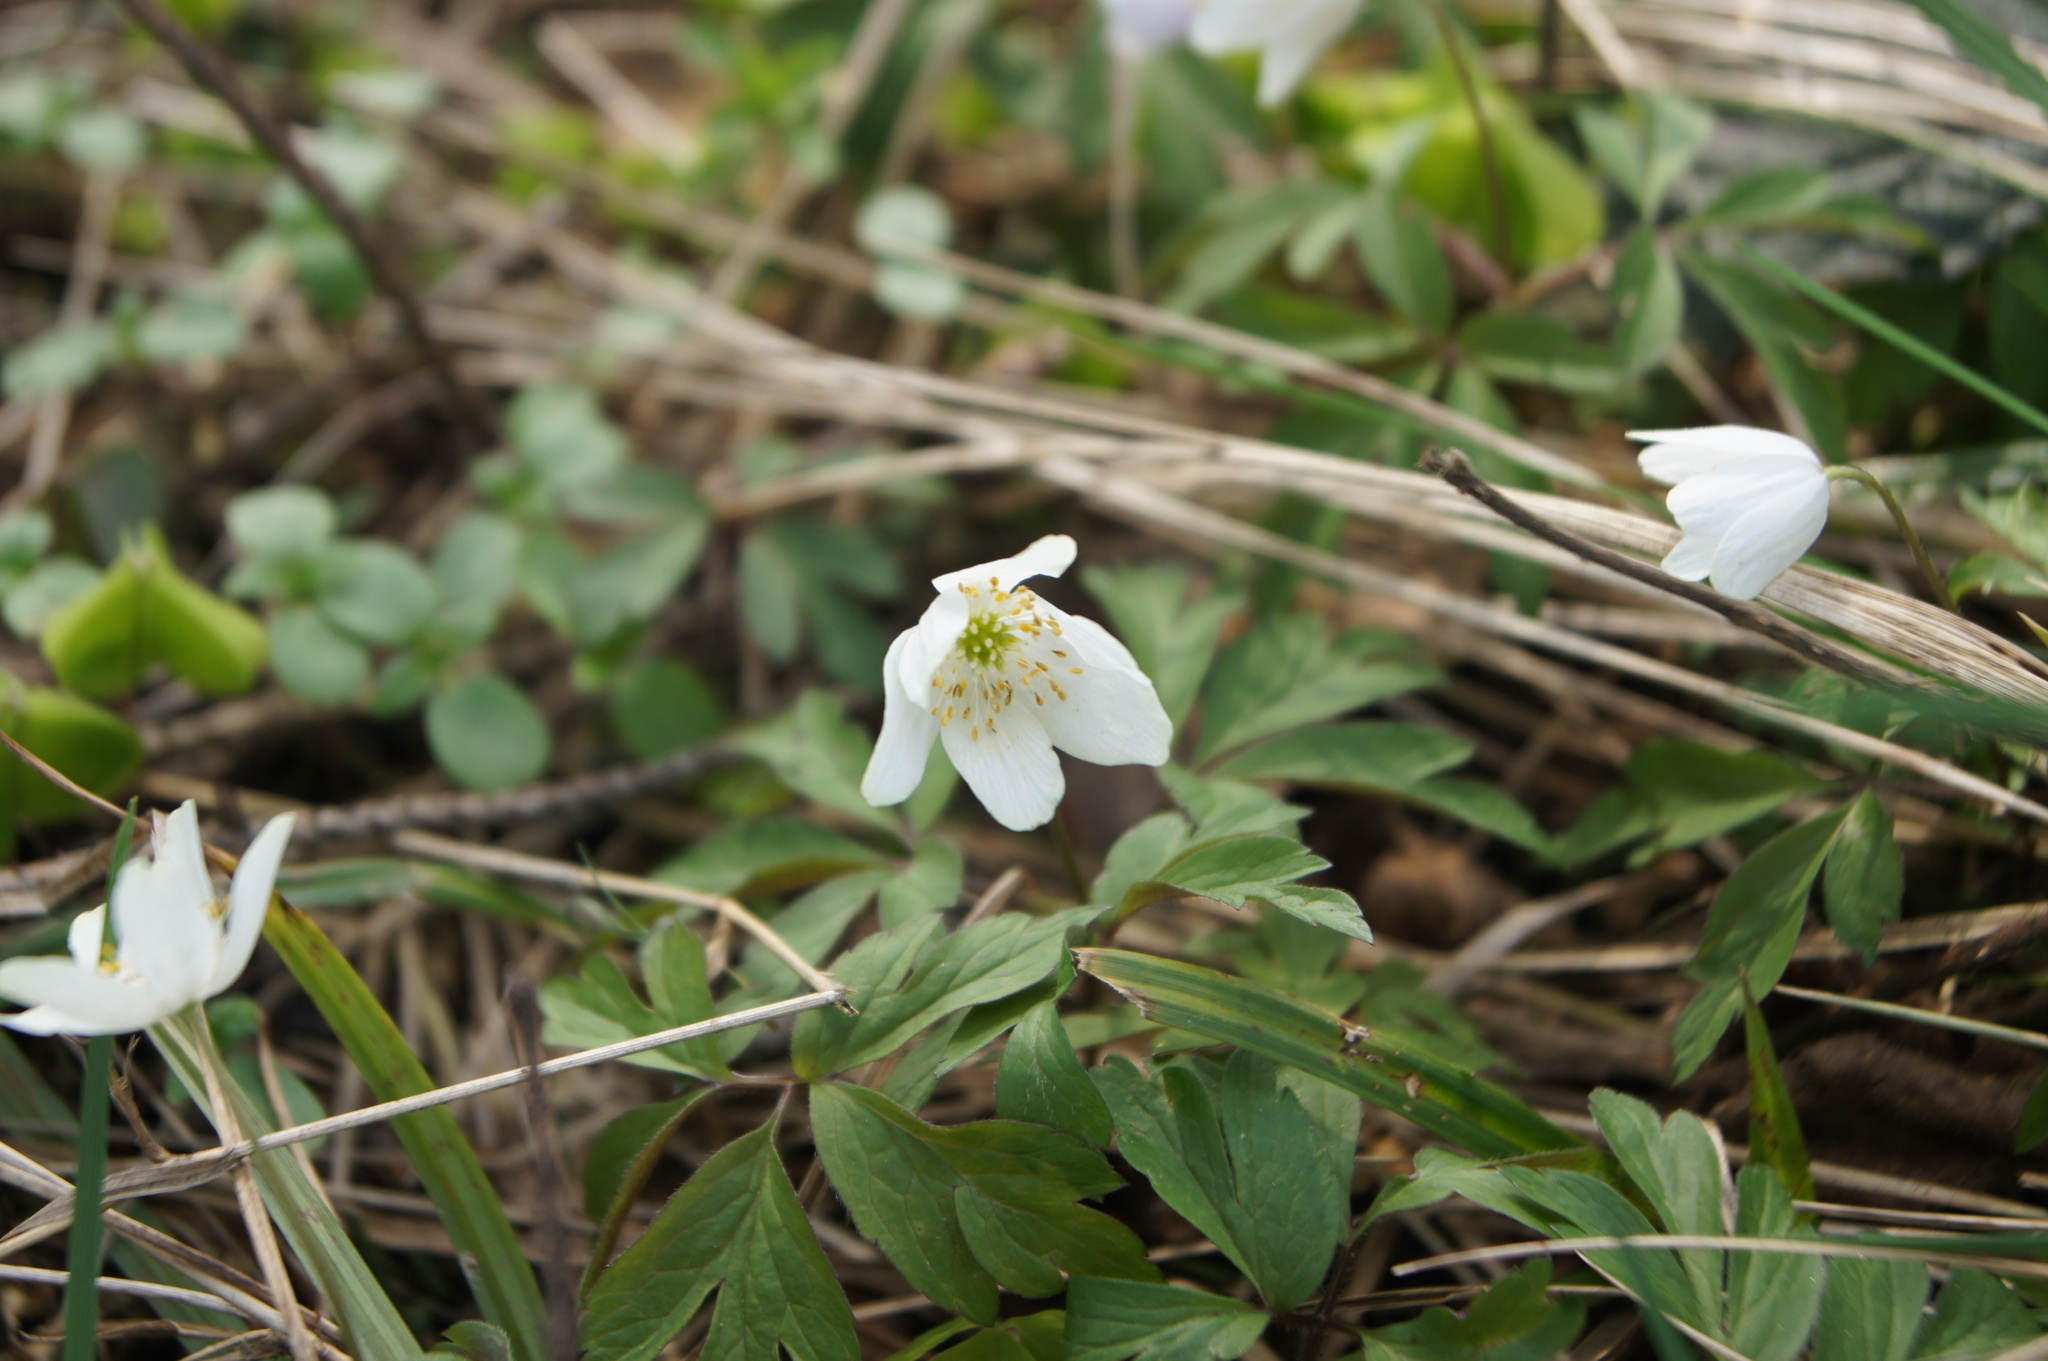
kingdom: Plantae
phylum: Tracheophyta
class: Magnoliopsida
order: Ranunculales
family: Ranunculaceae
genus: Anemone
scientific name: Anemone nemorosa
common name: Wood anemone
